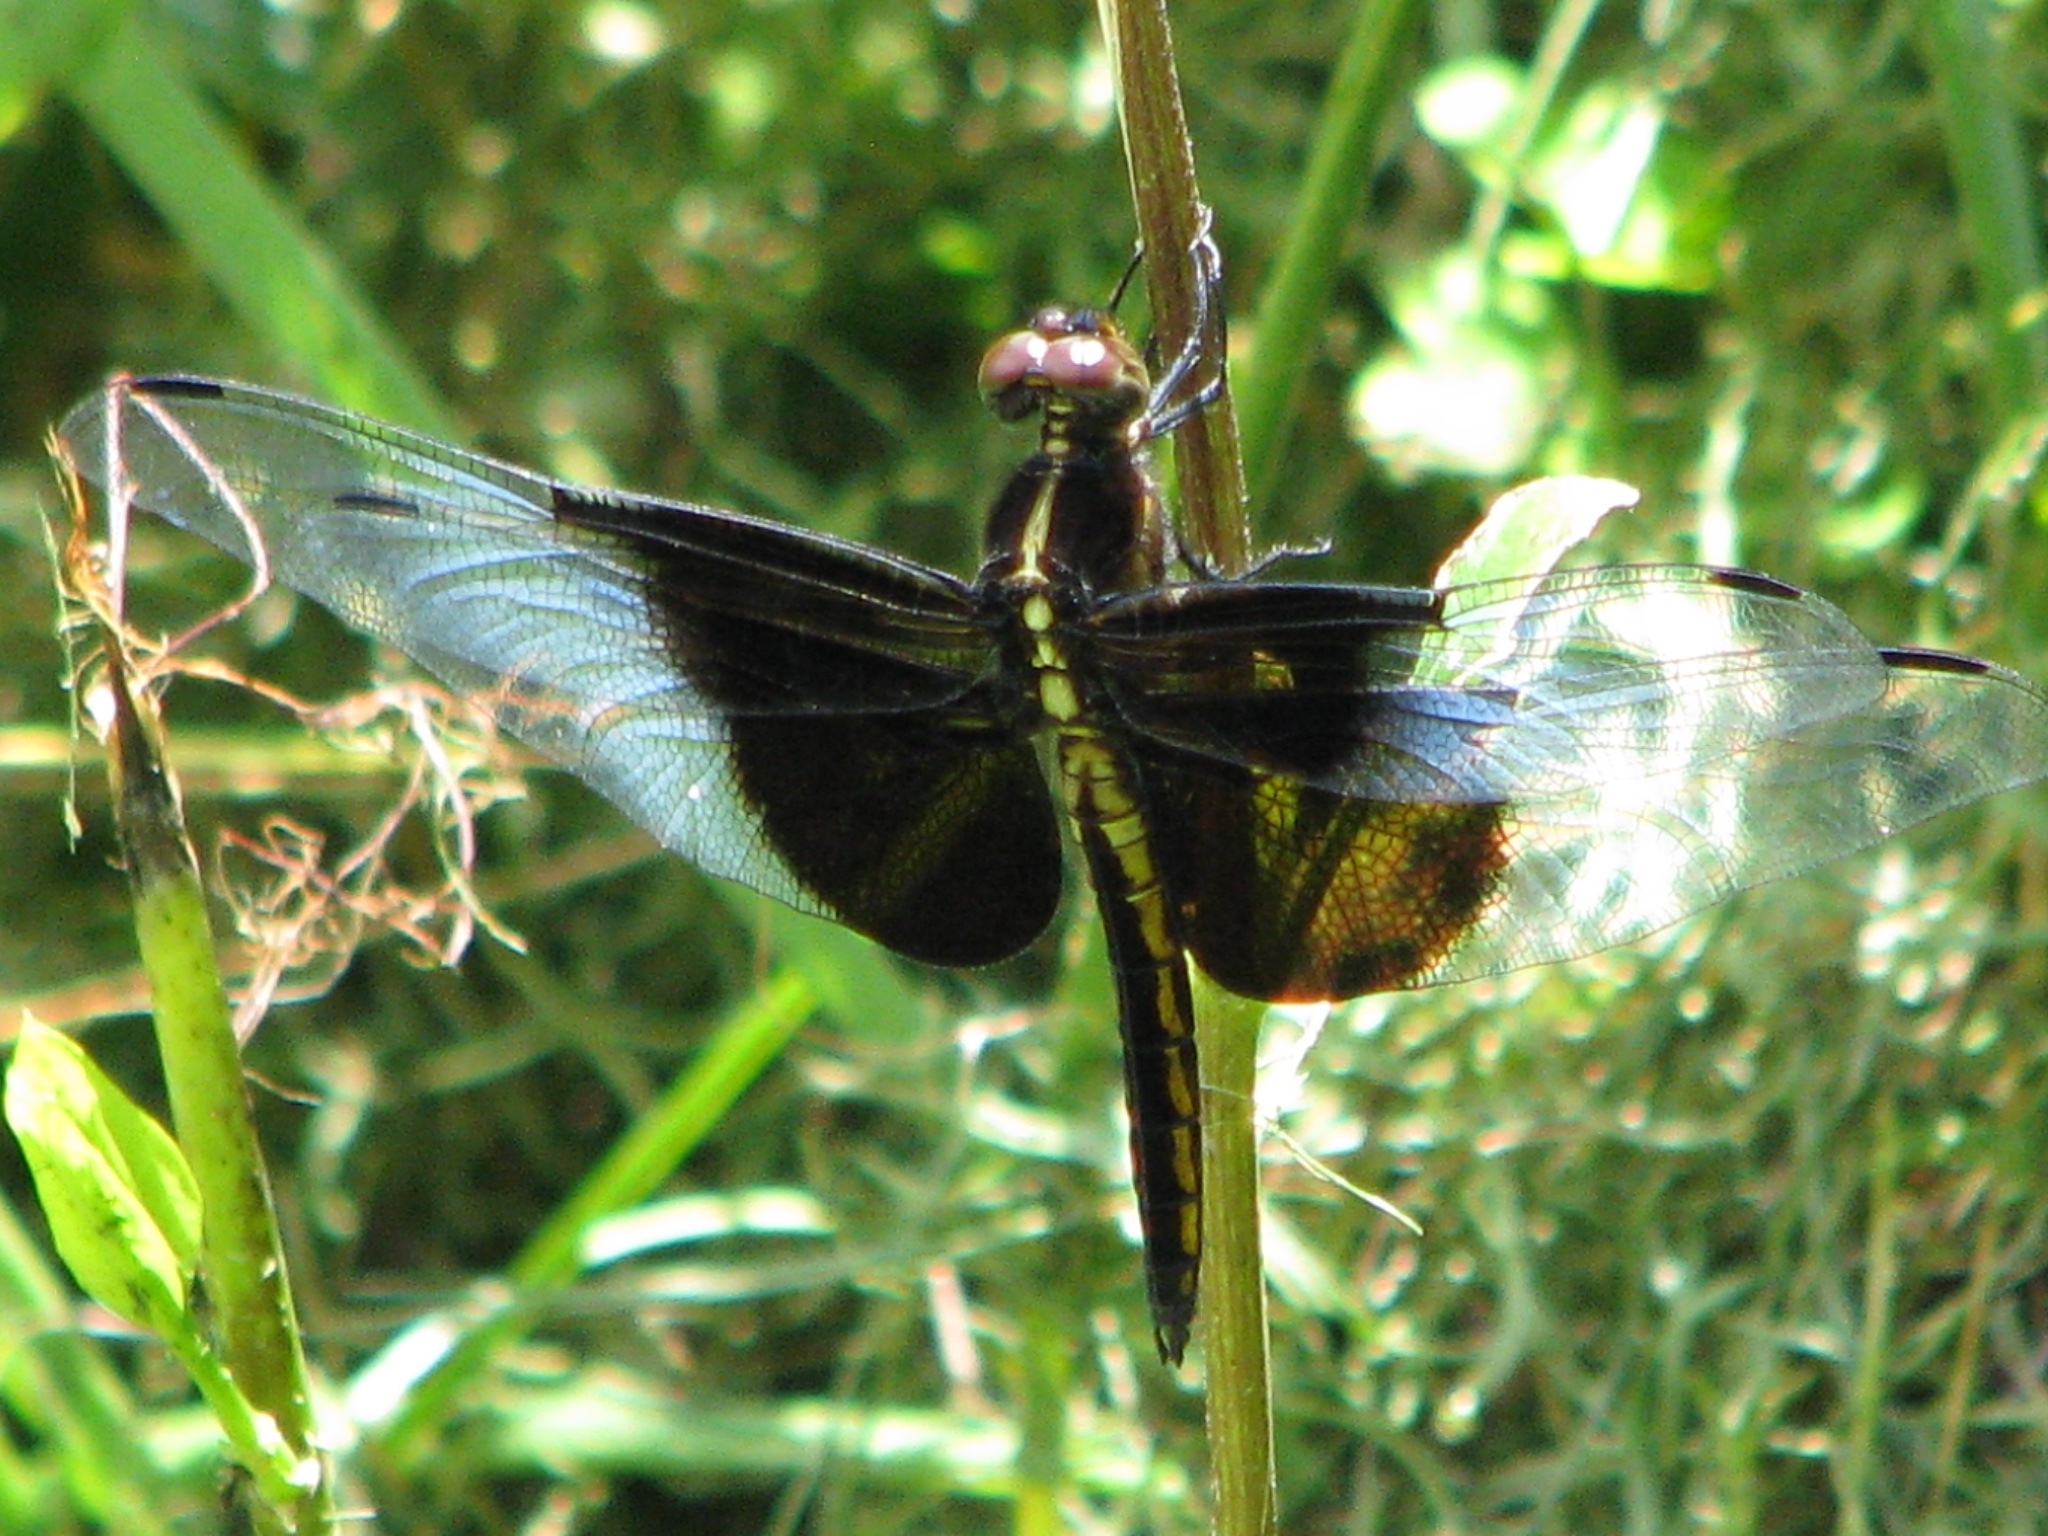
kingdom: Animalia
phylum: Arthropoda
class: Insecta
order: Odonata
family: Libellulidae
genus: Libellula
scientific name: Libellula luctuosa
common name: Widow skimmer
